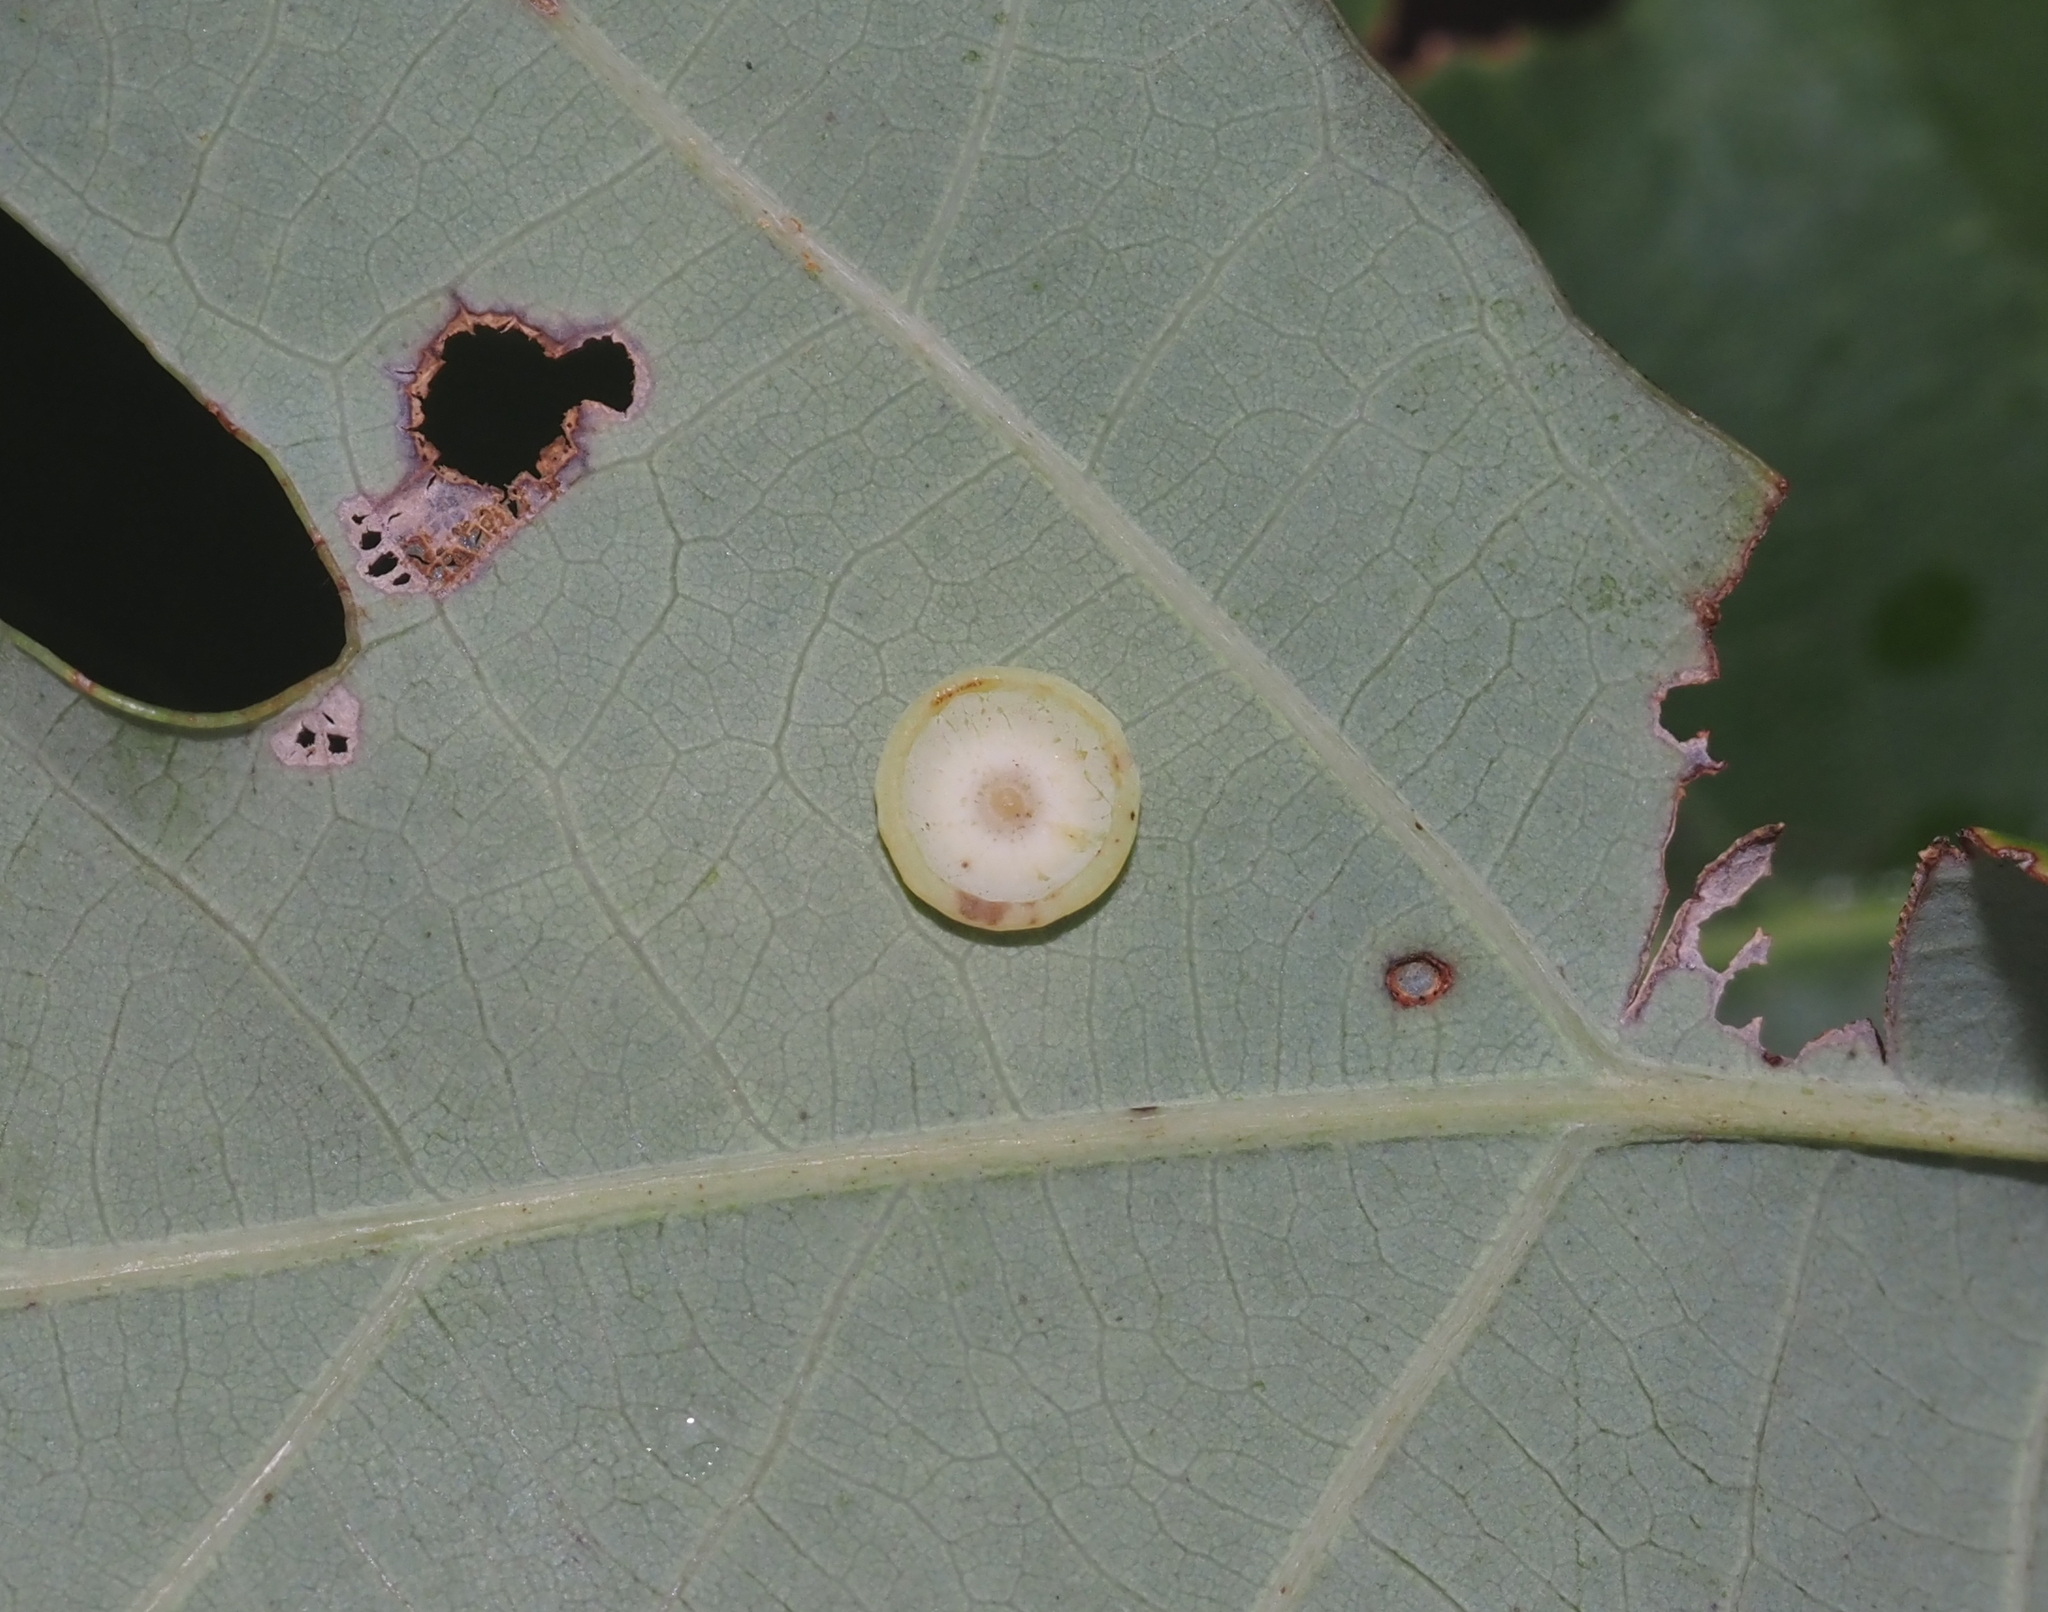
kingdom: Animalia
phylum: Arthropoda
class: Insecta
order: Hymenoptera
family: Cynipidae
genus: Phylloteras
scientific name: Phylloteras poculum
